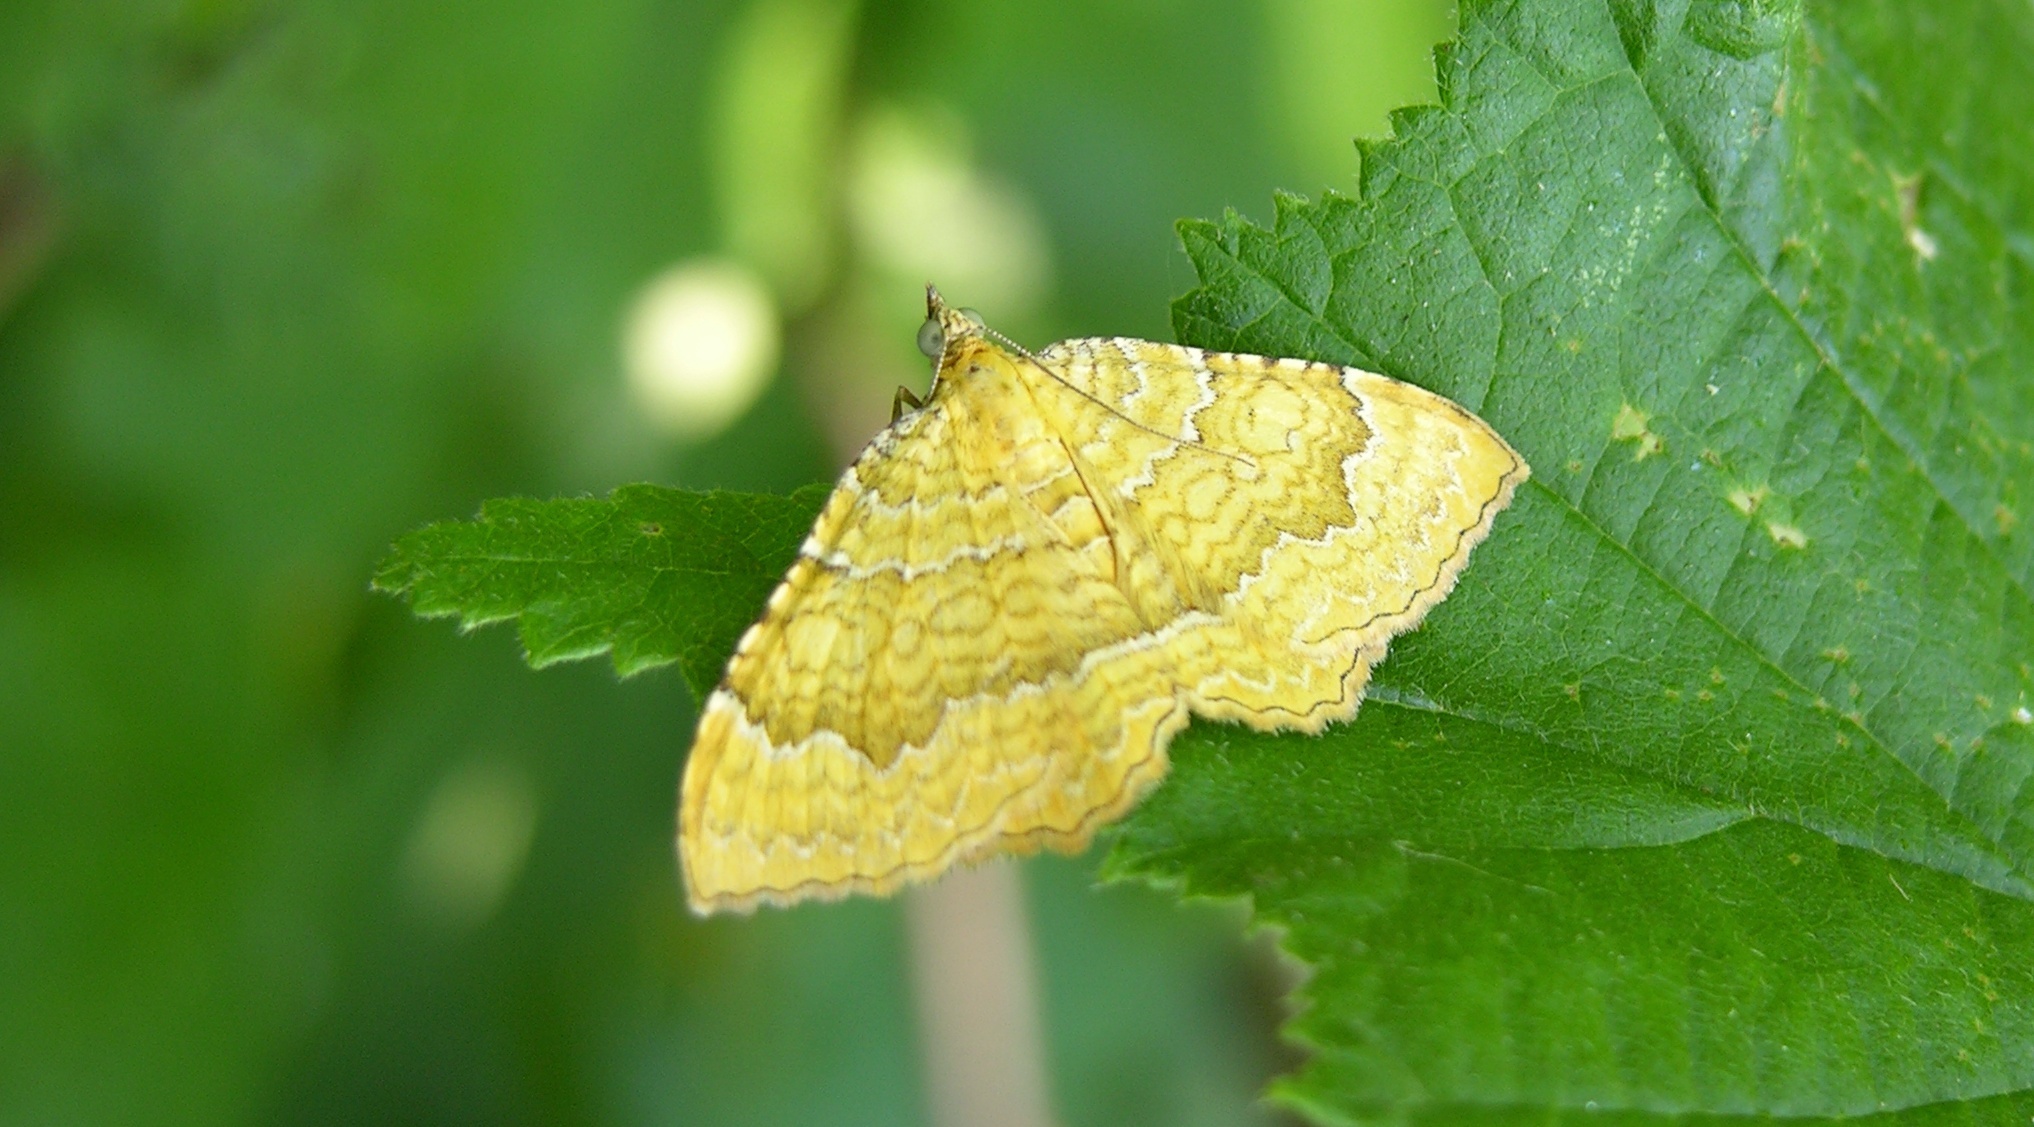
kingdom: Animalia
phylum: Arthropoda
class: Insecta
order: Lepidoptera
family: Geometridae
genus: Camptogramma
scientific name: Camptogramma bilineata
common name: Yellow shell
